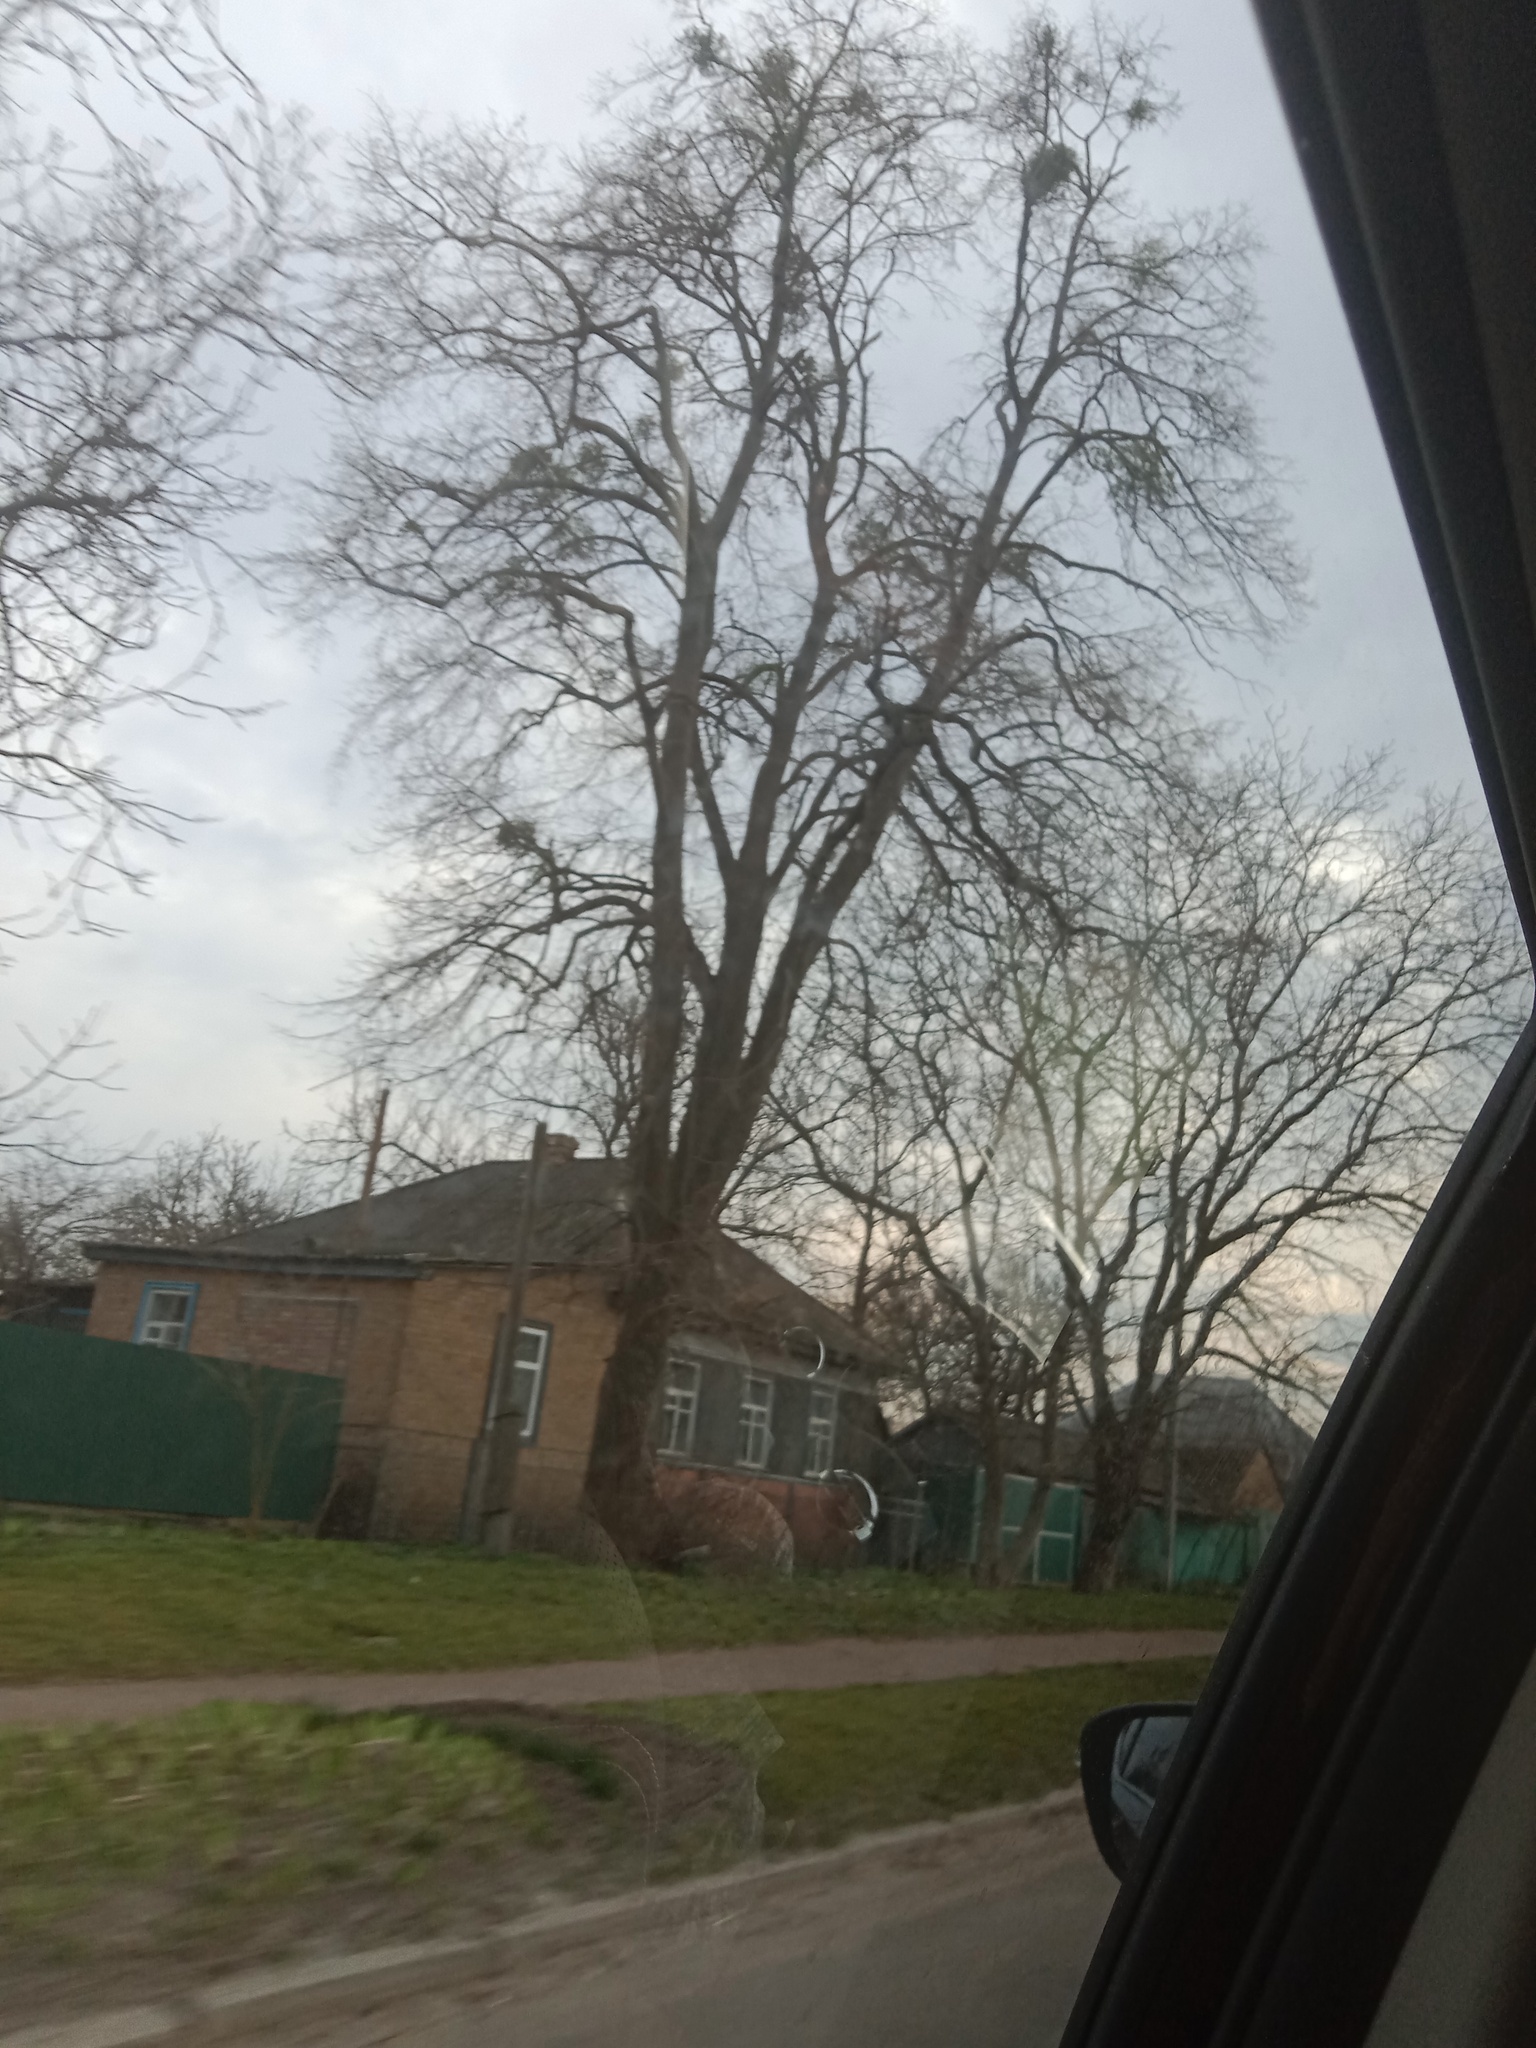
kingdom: Plantae
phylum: Tracheophyta
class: Magnoliopsida
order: Santalales
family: Viscaceae
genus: Viscum
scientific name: Viscum album
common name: Mistletoe
